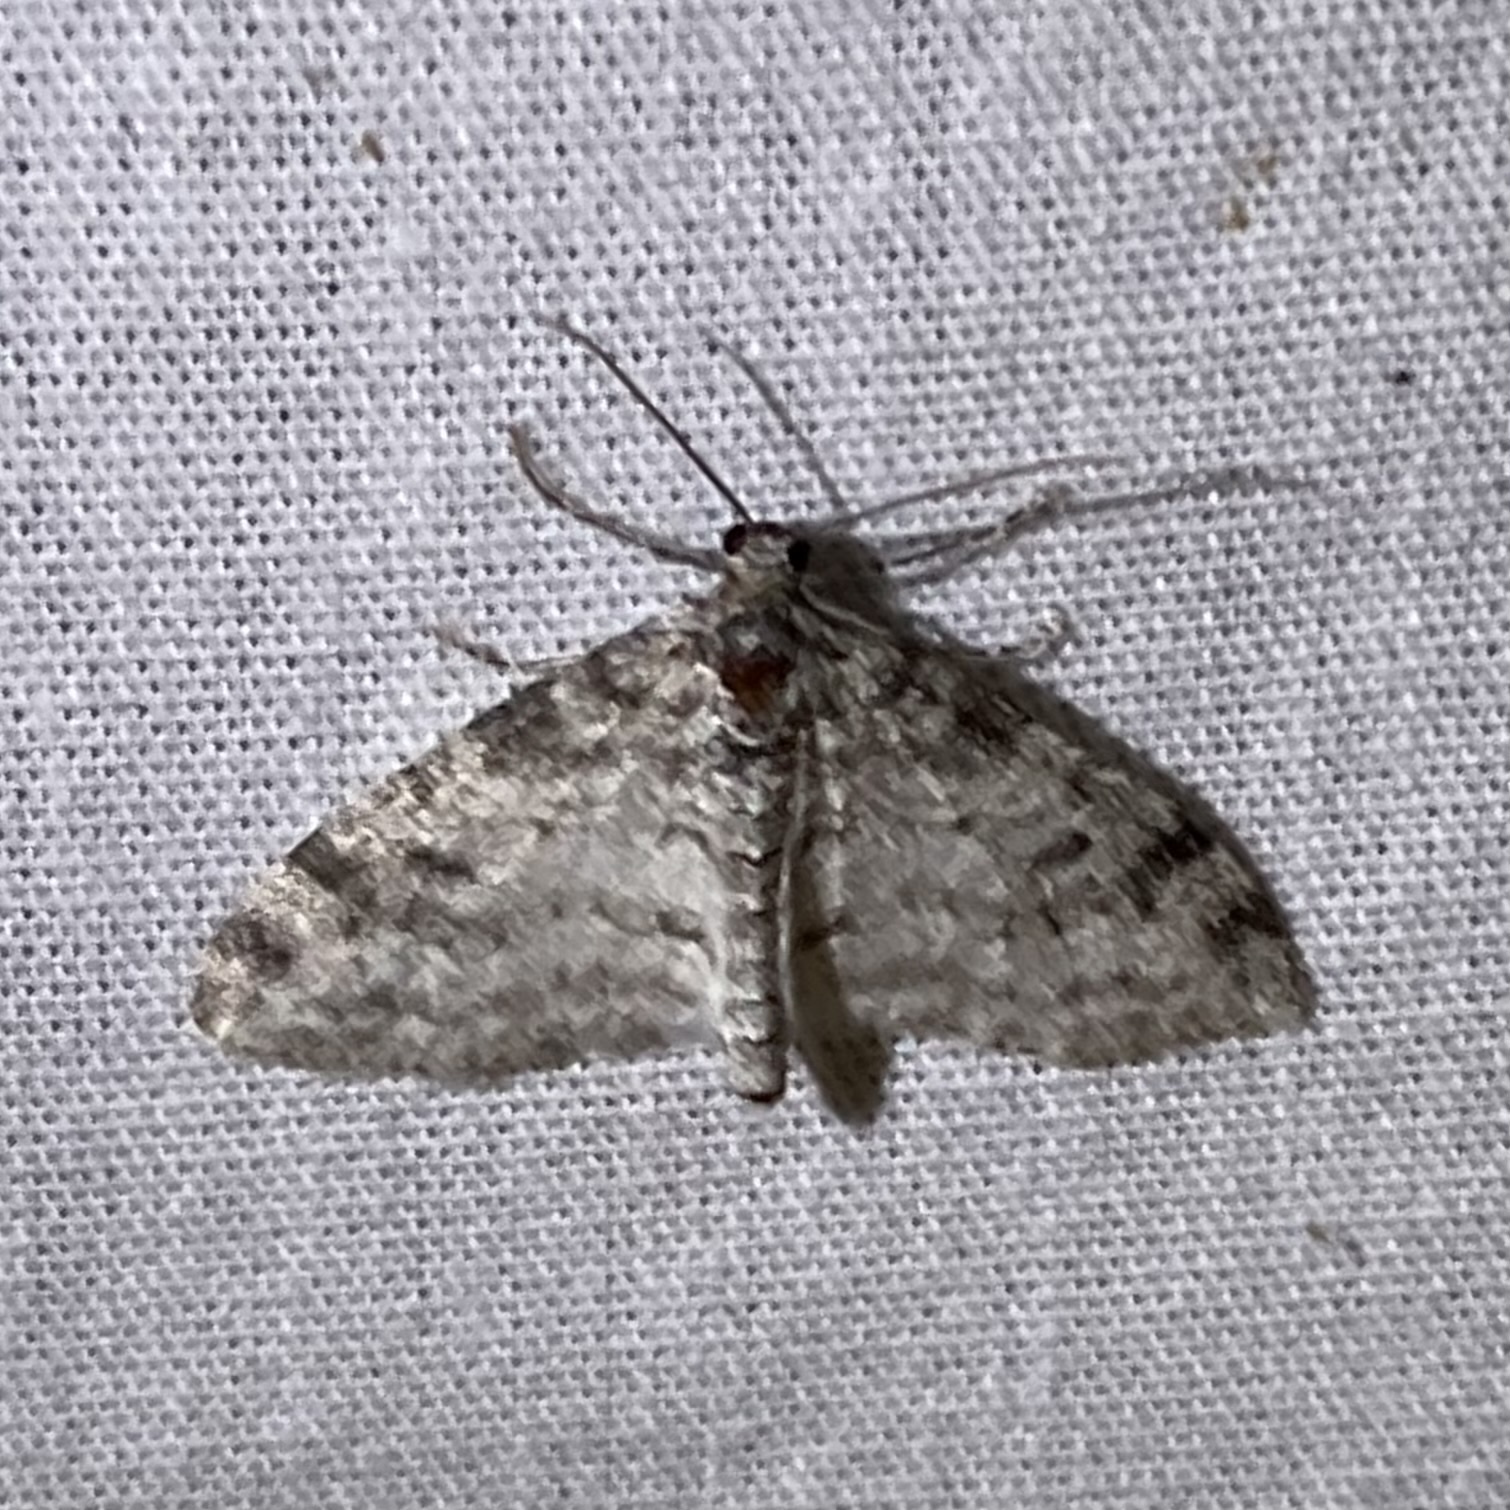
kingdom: Animalia
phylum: Arthropoda
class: Insecta
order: Lepidoptera
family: Geometridae
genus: Lobophora
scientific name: Lobophora nivigerata
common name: Powdered bigwing
